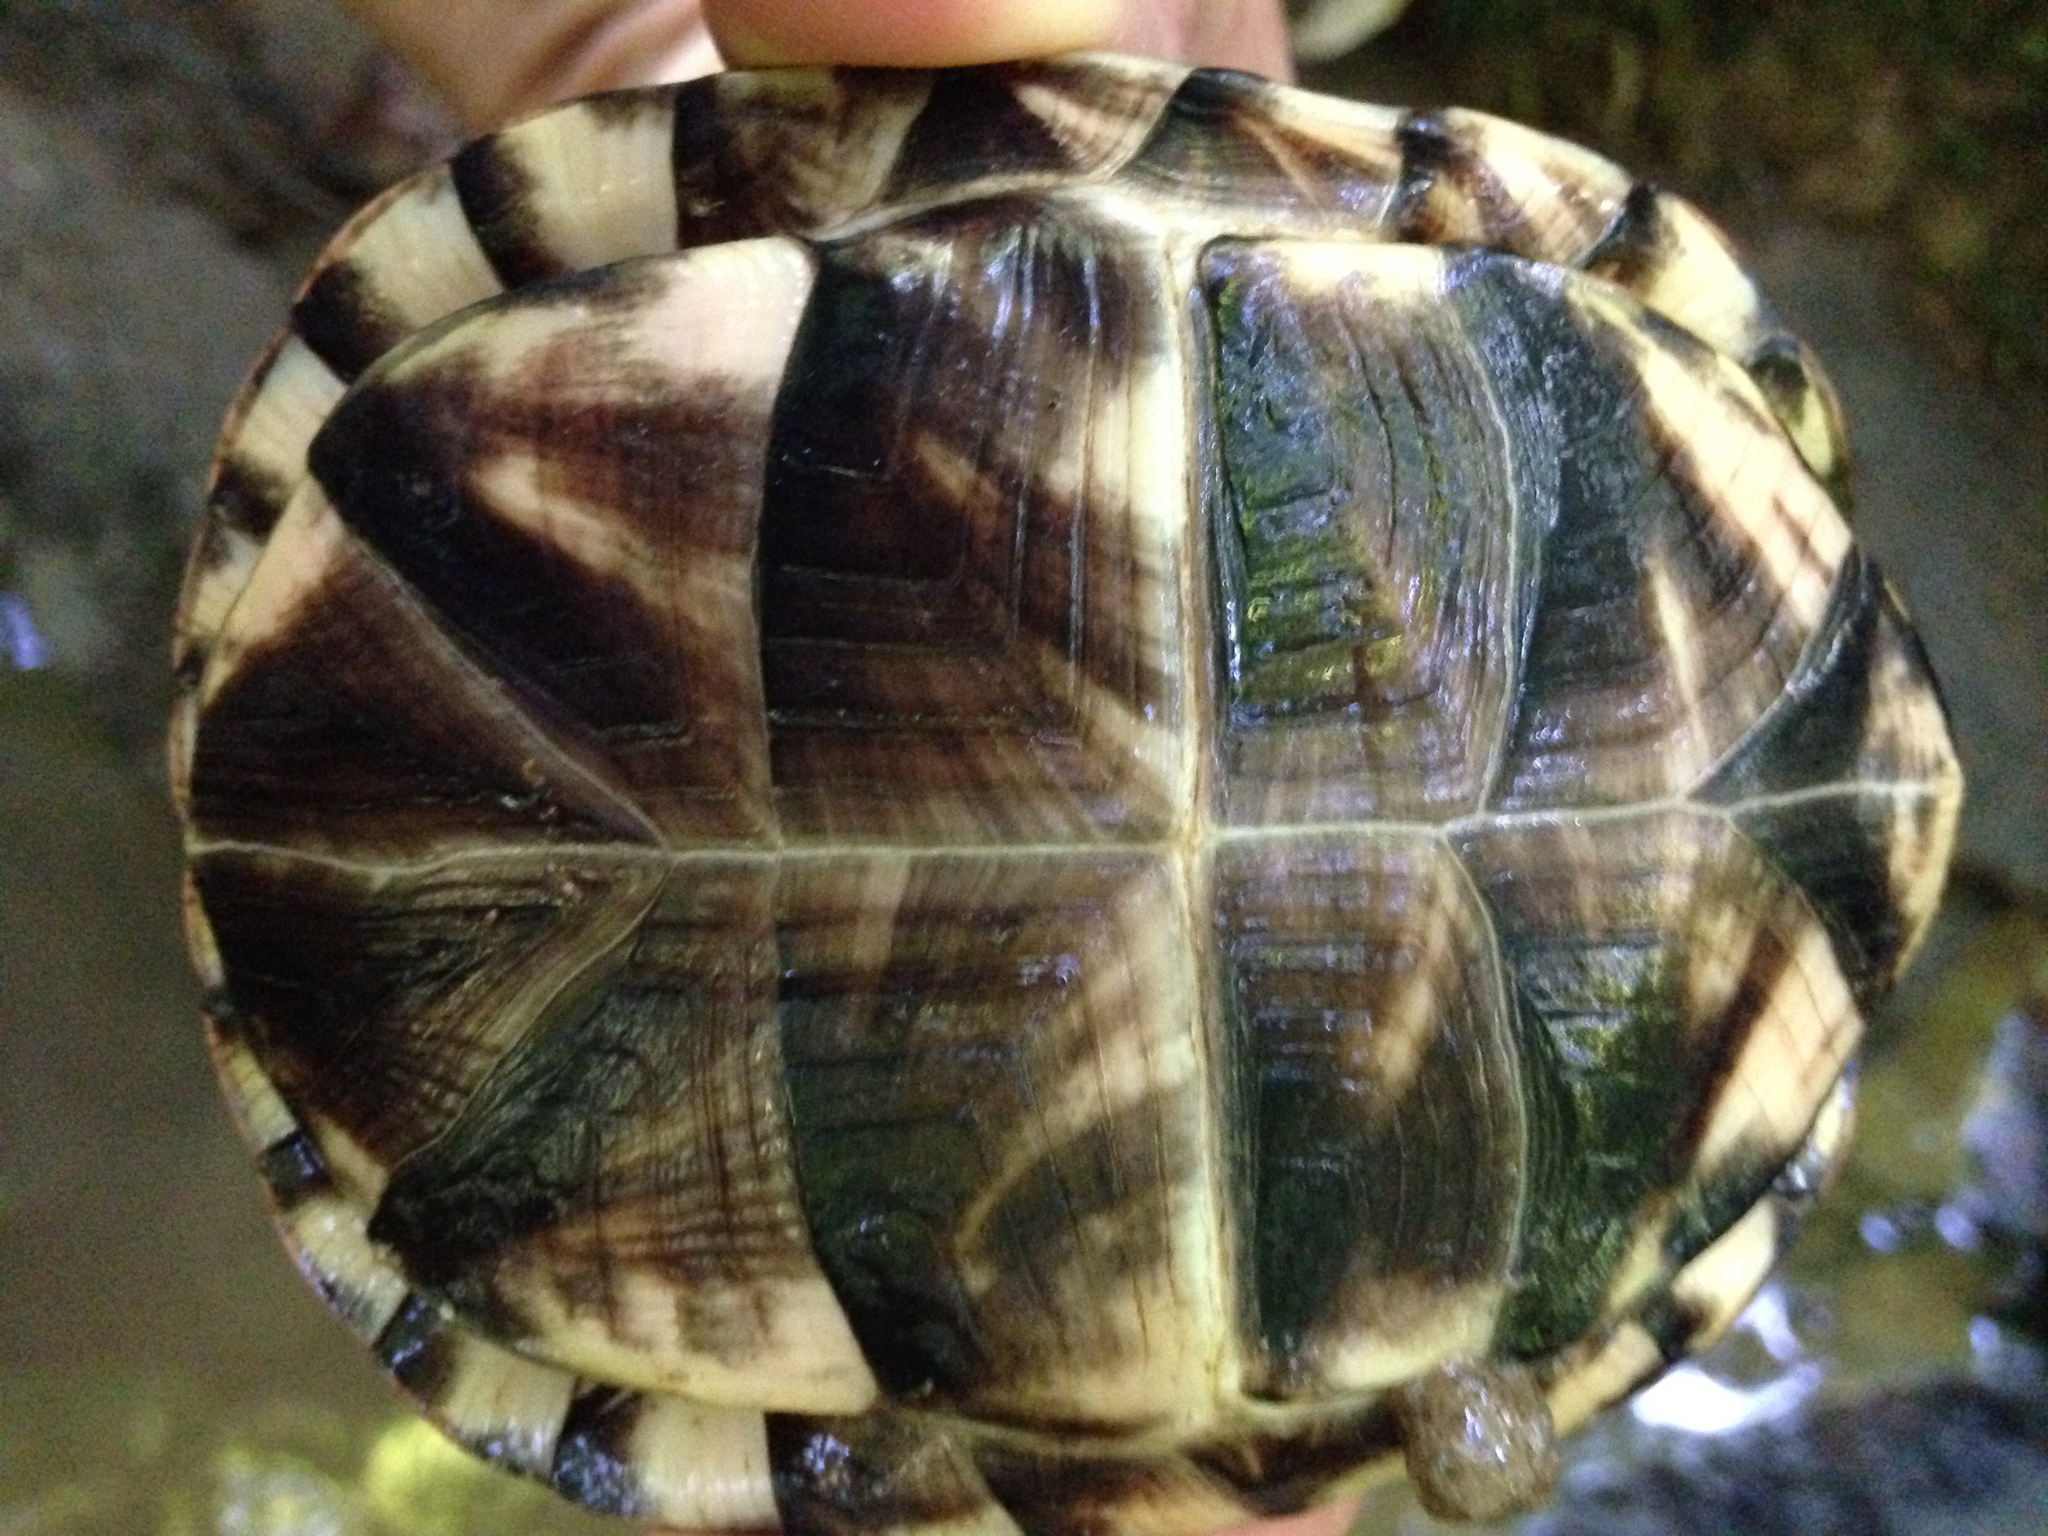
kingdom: Animalia
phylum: Chordata
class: Testudines
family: Emydidae
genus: Terrapene
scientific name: Terrapene carolina
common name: Common box turtle
